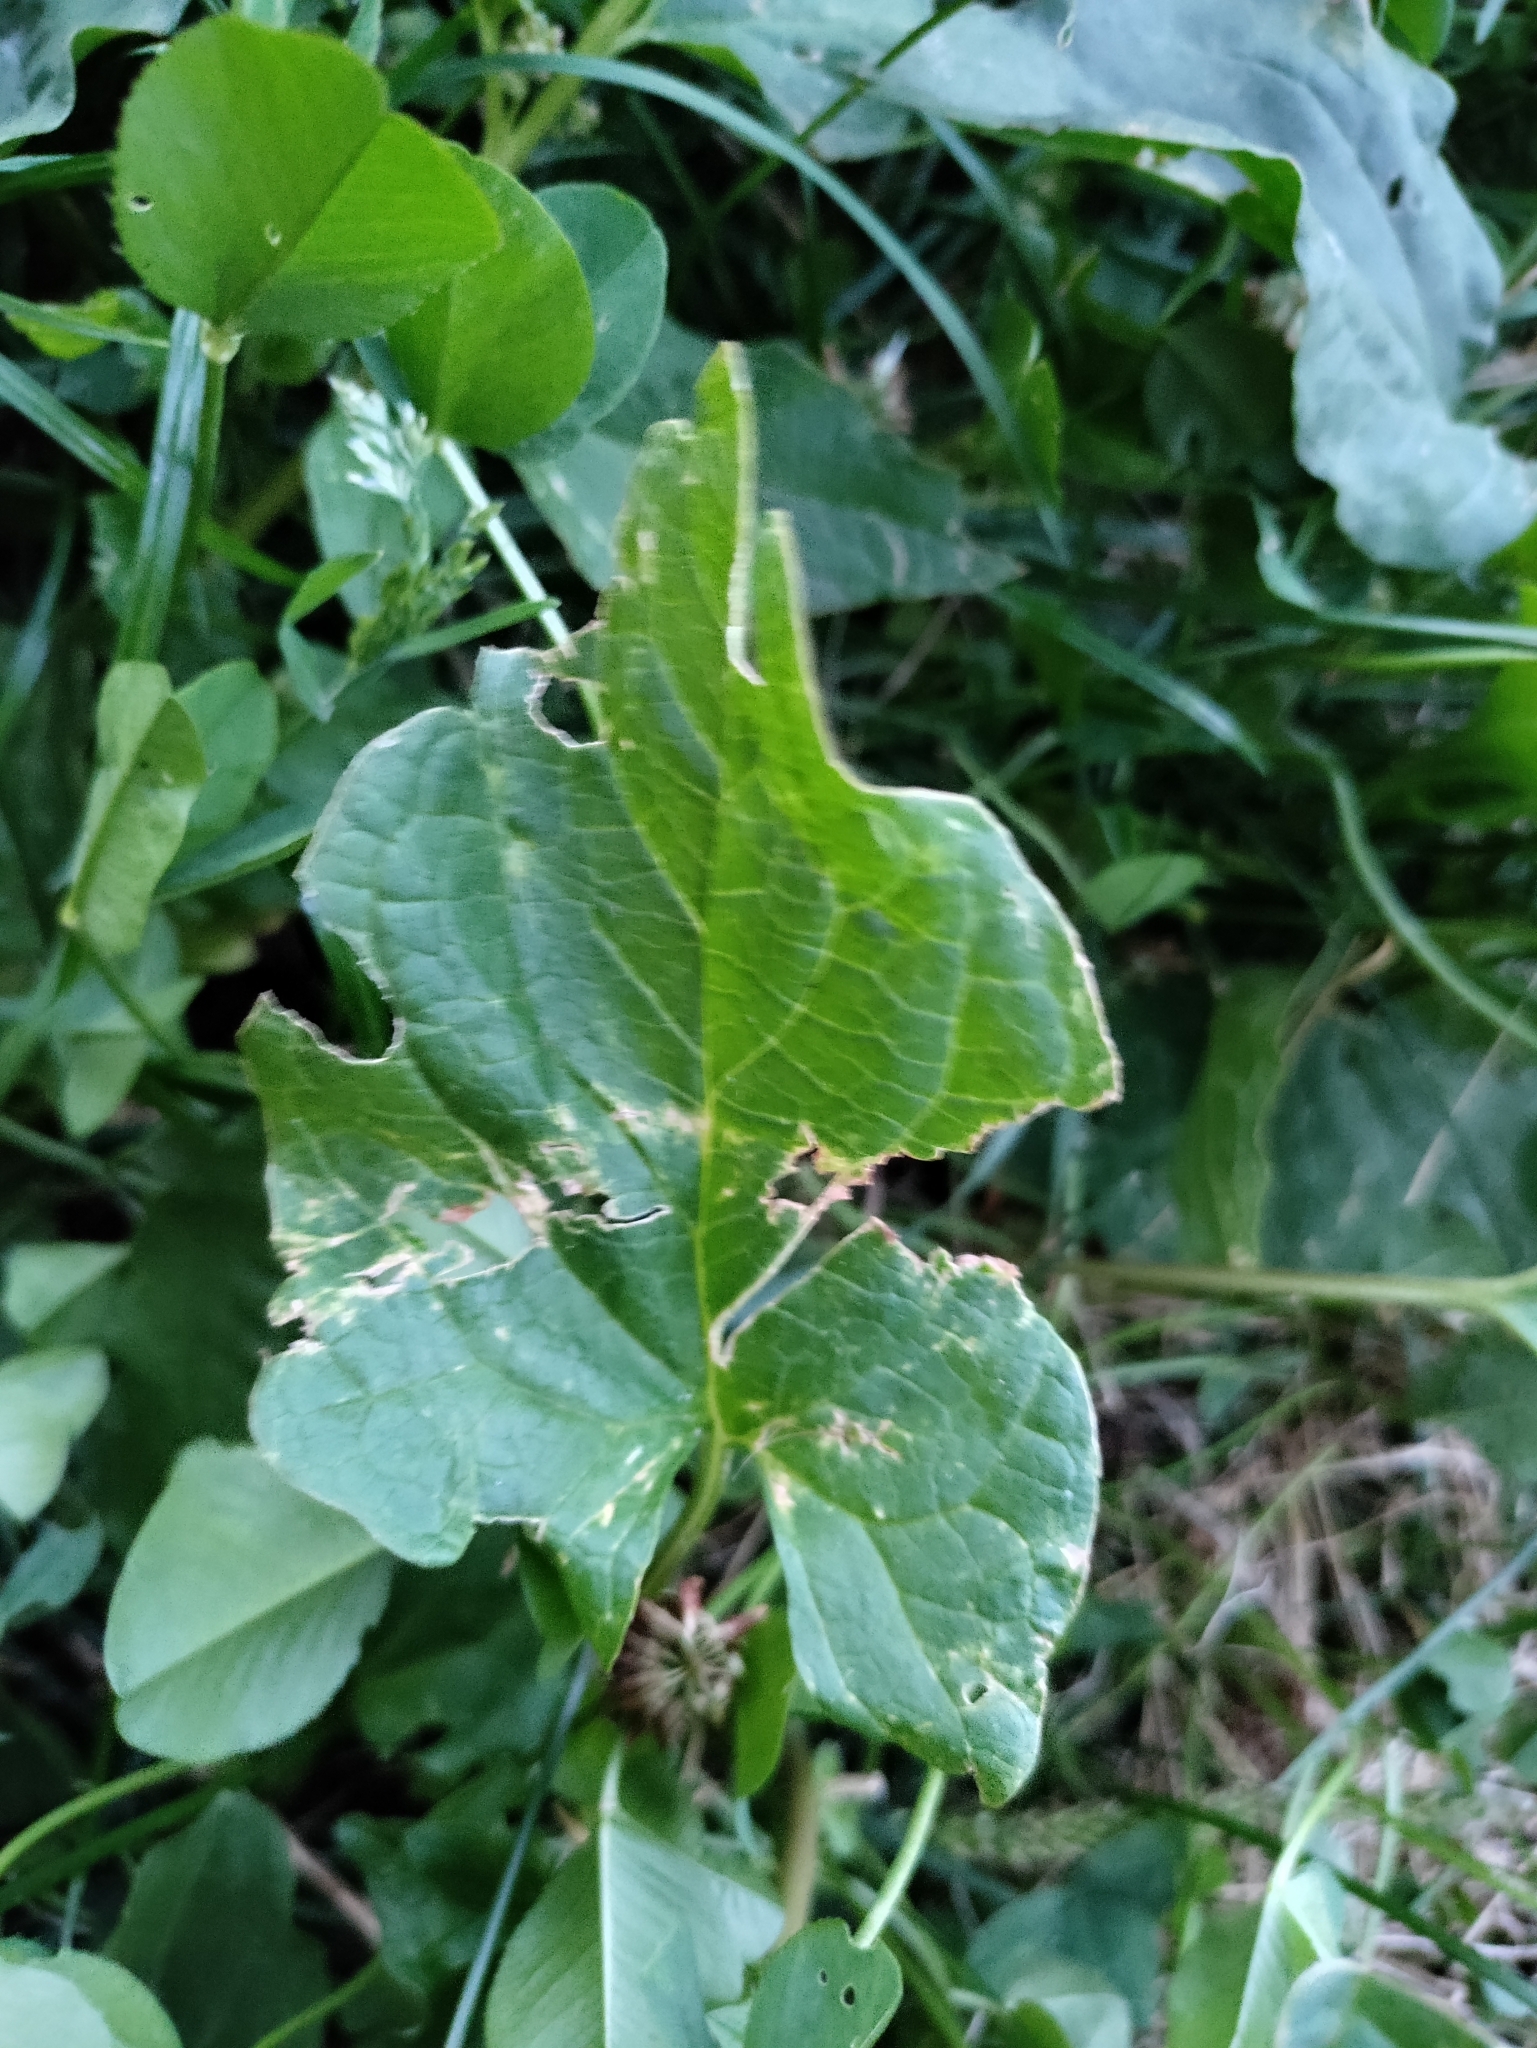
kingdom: Plantae
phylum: Tracheophyta
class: Magnoliopsida
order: Caryophyllales
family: Amaranthaceae
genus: Blitum
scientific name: Blitum bonus-henricus
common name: Good king henry
